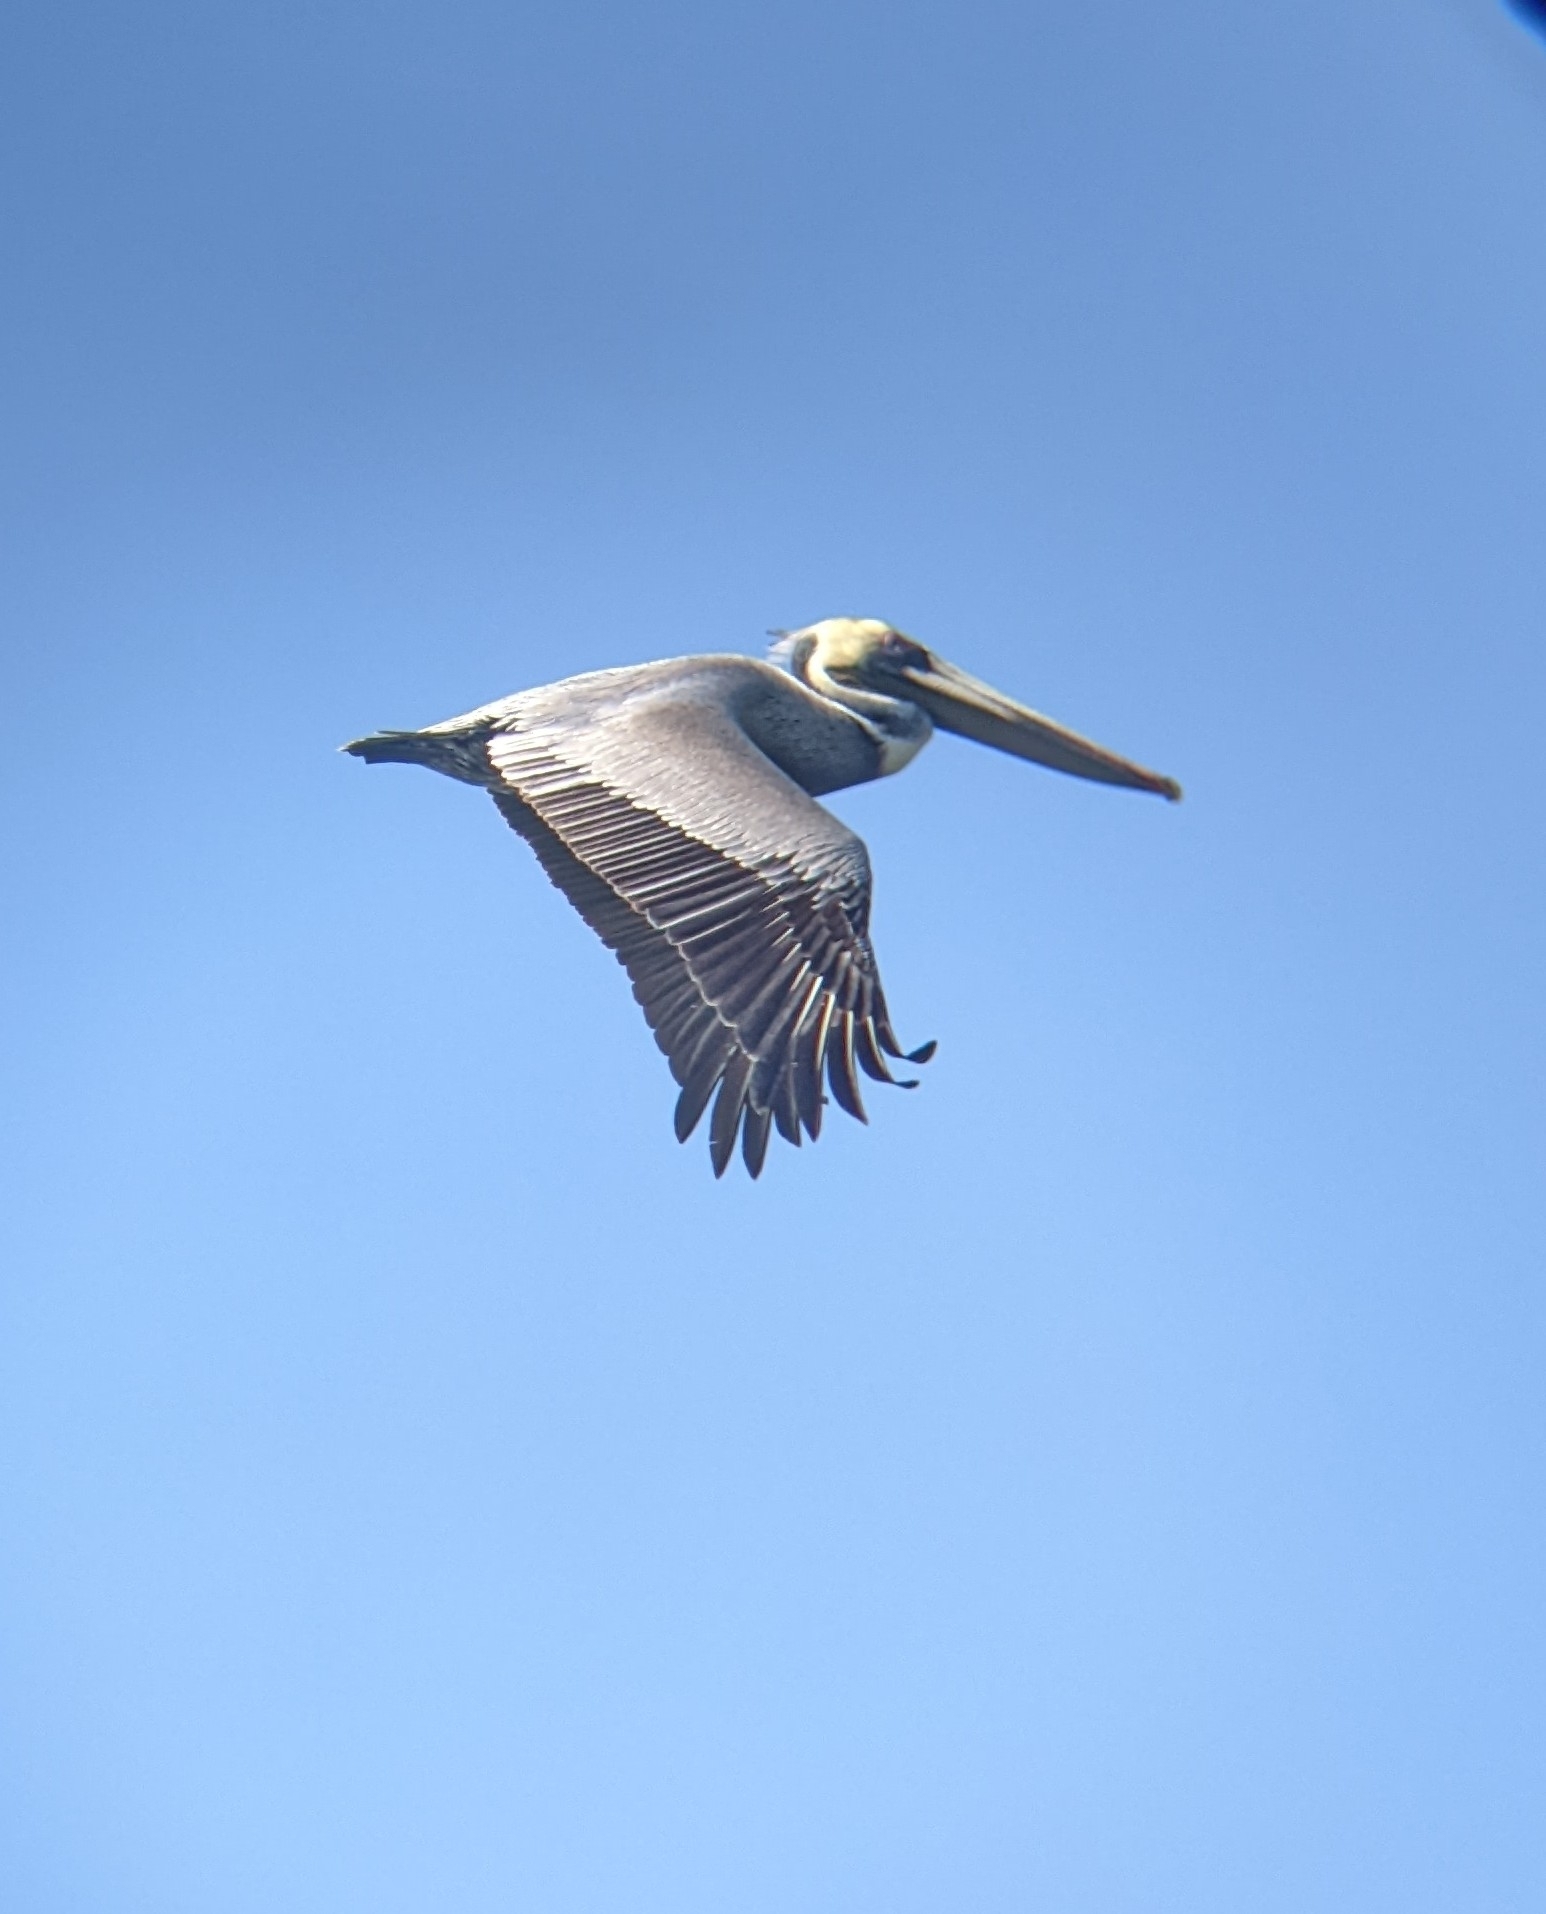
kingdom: Animalia
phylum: Chordata
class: Aves
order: Pelecaniformes
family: Pelecanidae
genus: Pelecanus
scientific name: Pelecanus occidentalis
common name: Brown pelican
